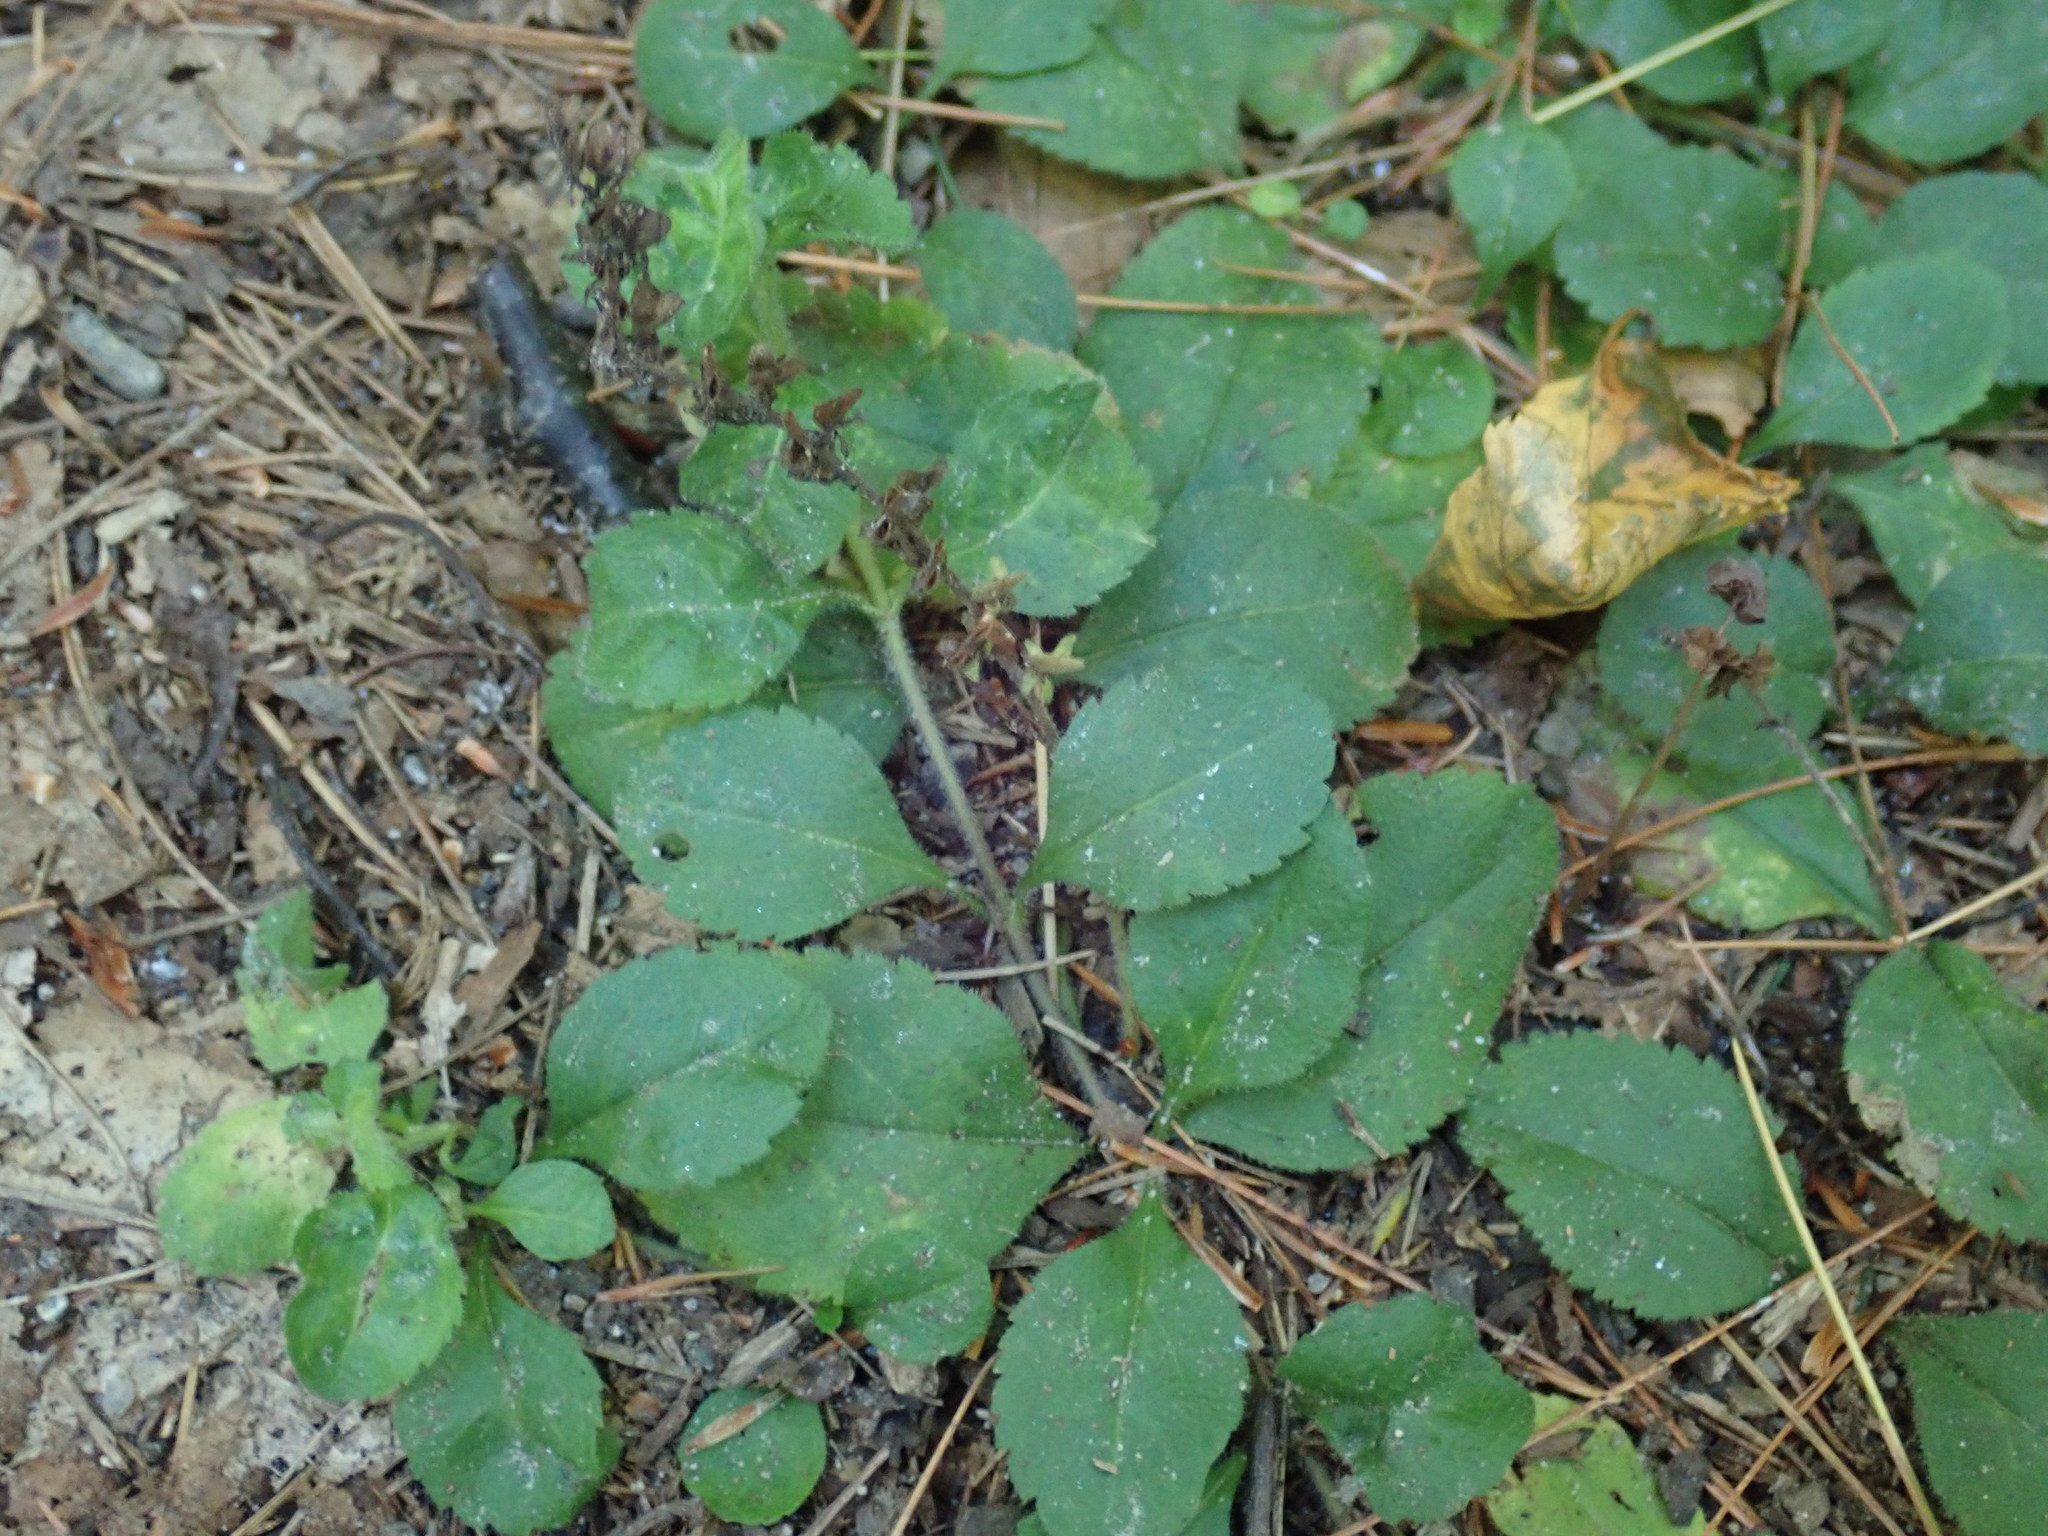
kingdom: Plantae
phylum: Tracheophyta
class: Magnoliopsida
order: Lamiales
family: Plantaginaceae
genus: Veronica
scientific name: Veronica officinalis
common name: Common speedwell
